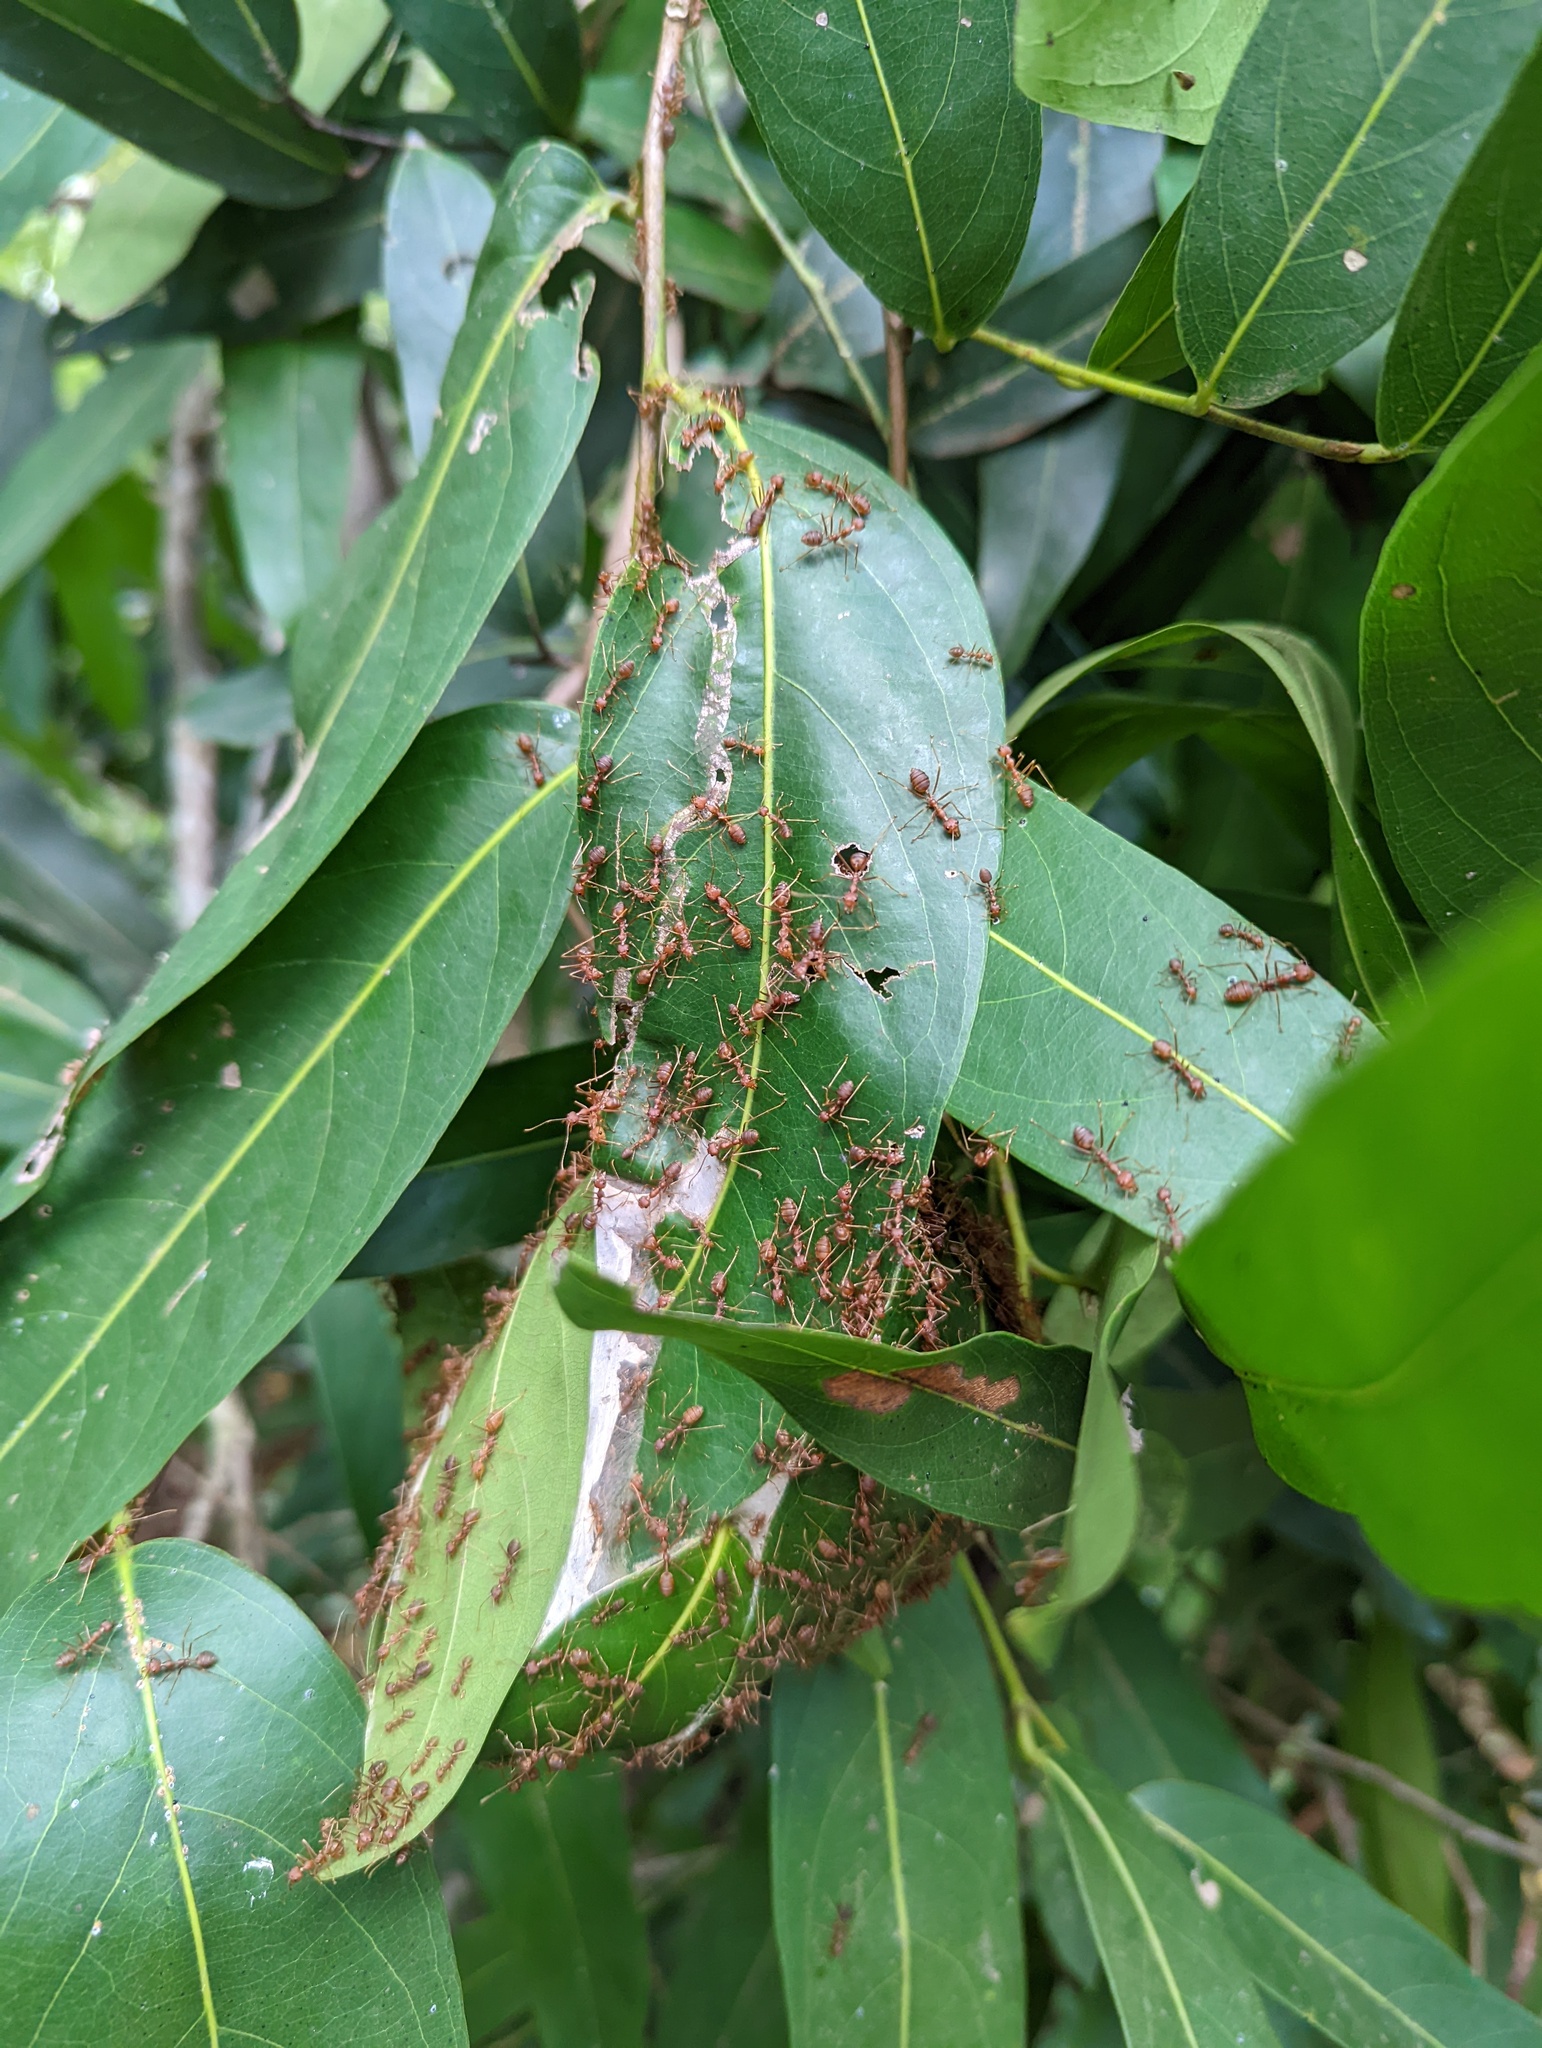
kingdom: Animalia
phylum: Arthropoda
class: Insecta
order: Hymenoptera
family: Formicidae
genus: Oecophylla
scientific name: Oecophylla smaragdina
